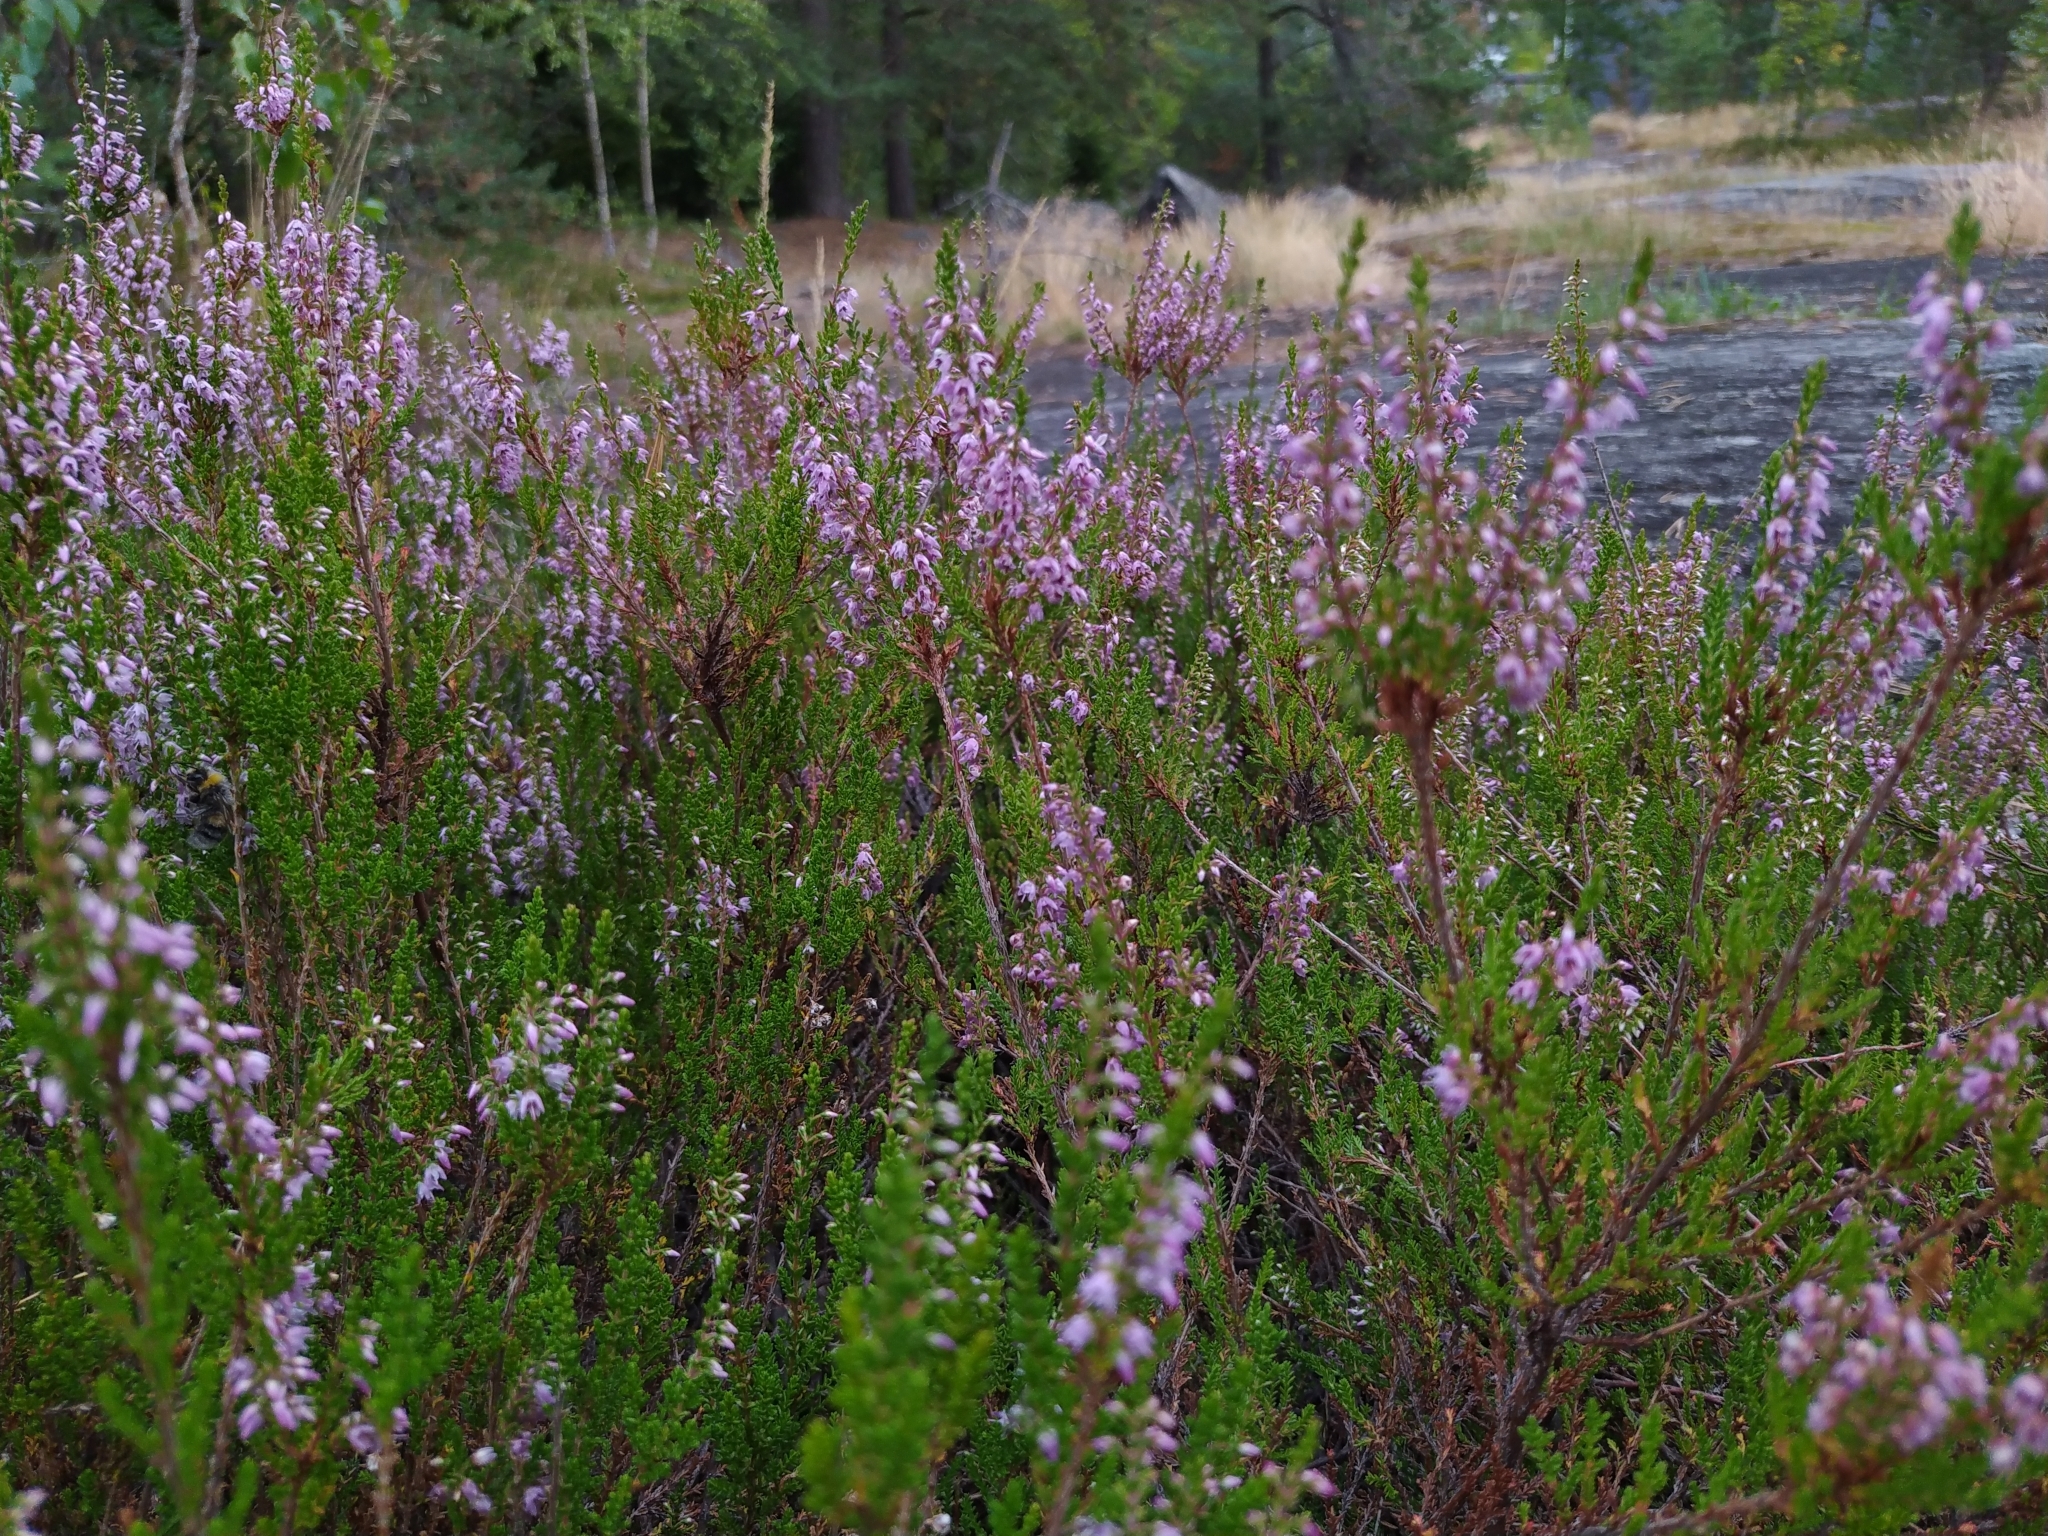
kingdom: Plantae
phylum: Tracheophyta
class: Magnoliopsida
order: Ericales
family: Ericaceae
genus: Calluna
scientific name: Calluna vulgaris
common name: Heather
